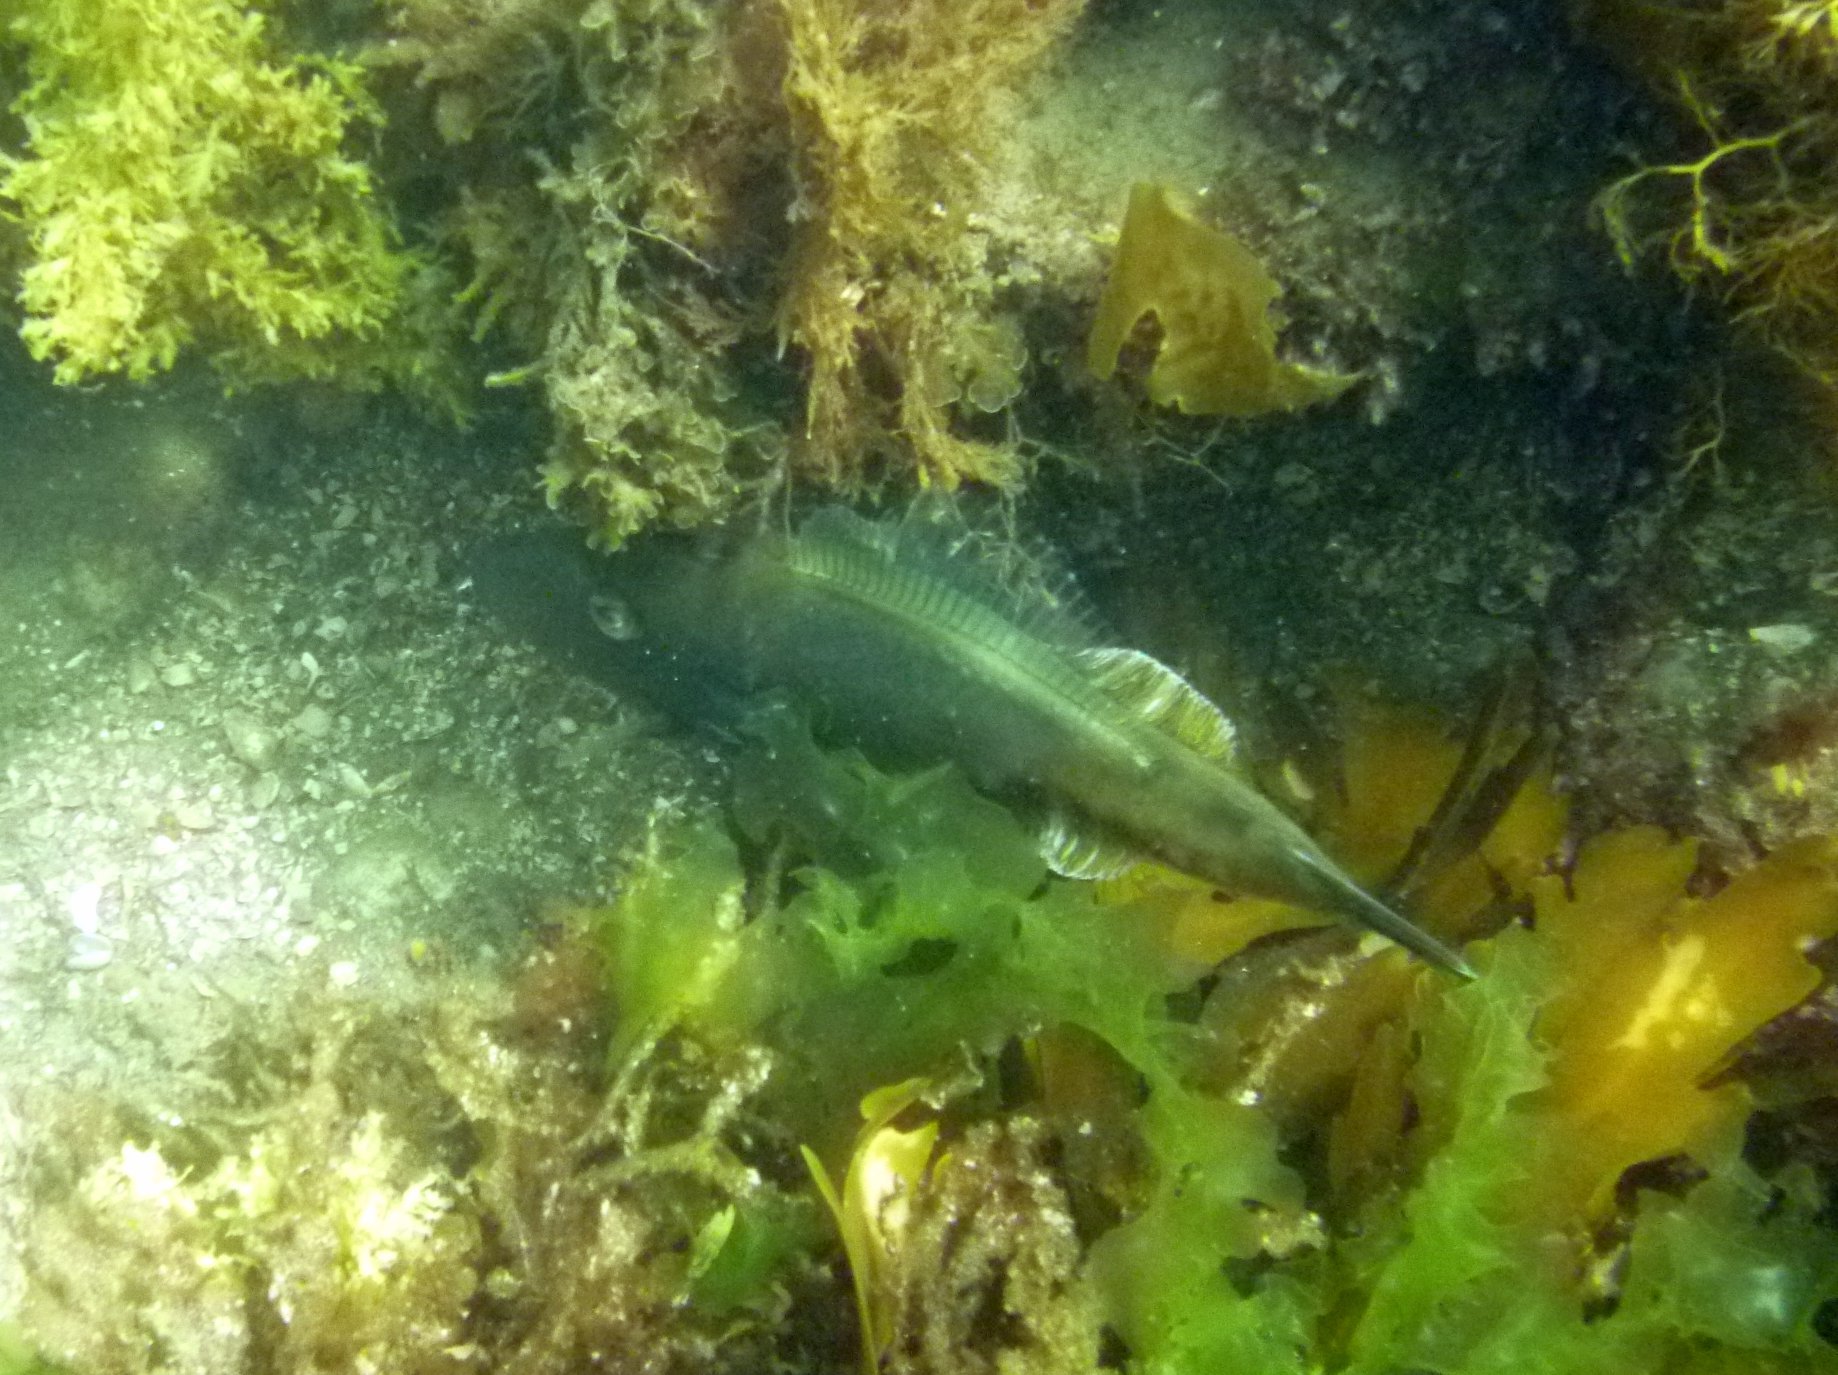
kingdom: Animalia
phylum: Chordata
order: Tetraodontiformes
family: Monacanthidae
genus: Acanthaluteres
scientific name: Acanthaluteres vittiger
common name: Brown leatherjacket
